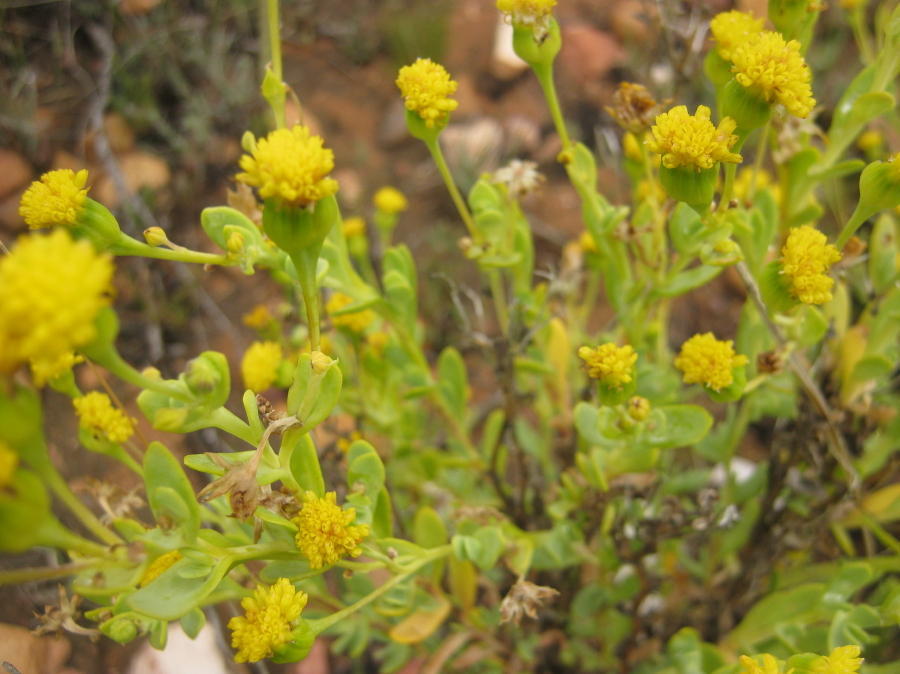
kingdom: Plantae
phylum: Tracheophyta
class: Magnoliopsida
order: Asterales
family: Asteraceae
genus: Hertia
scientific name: Hertia kraussii
